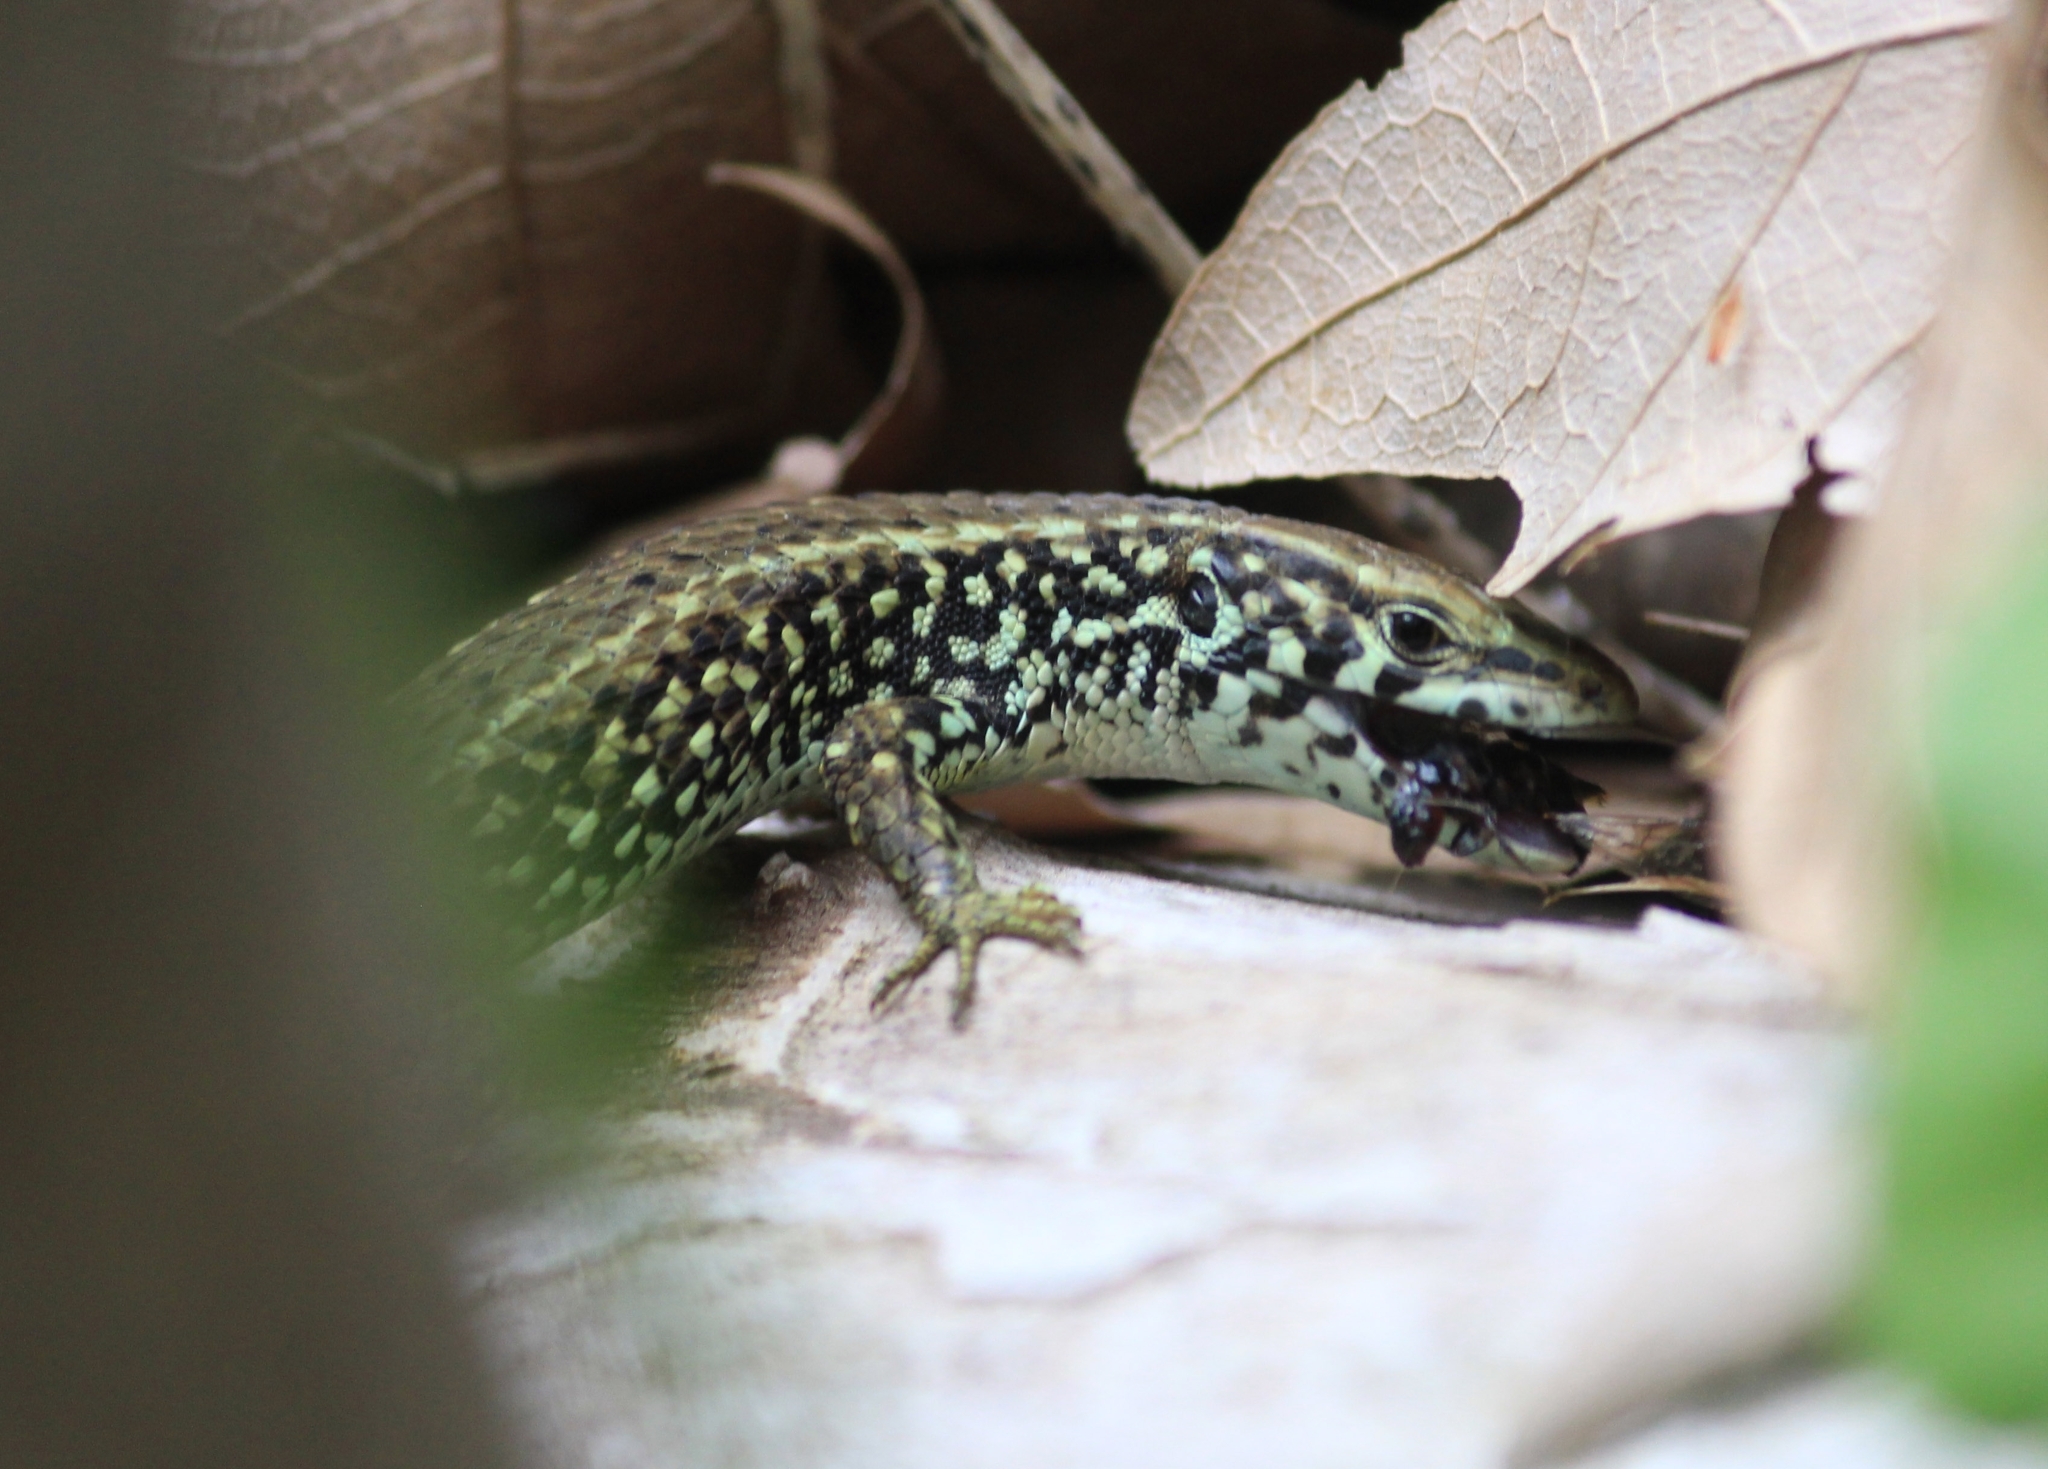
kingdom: Animalia
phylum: Chordata
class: Squamata
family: Lacertidae
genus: Algyroides
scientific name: Algyroides moreoticus
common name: Greek algyroides
